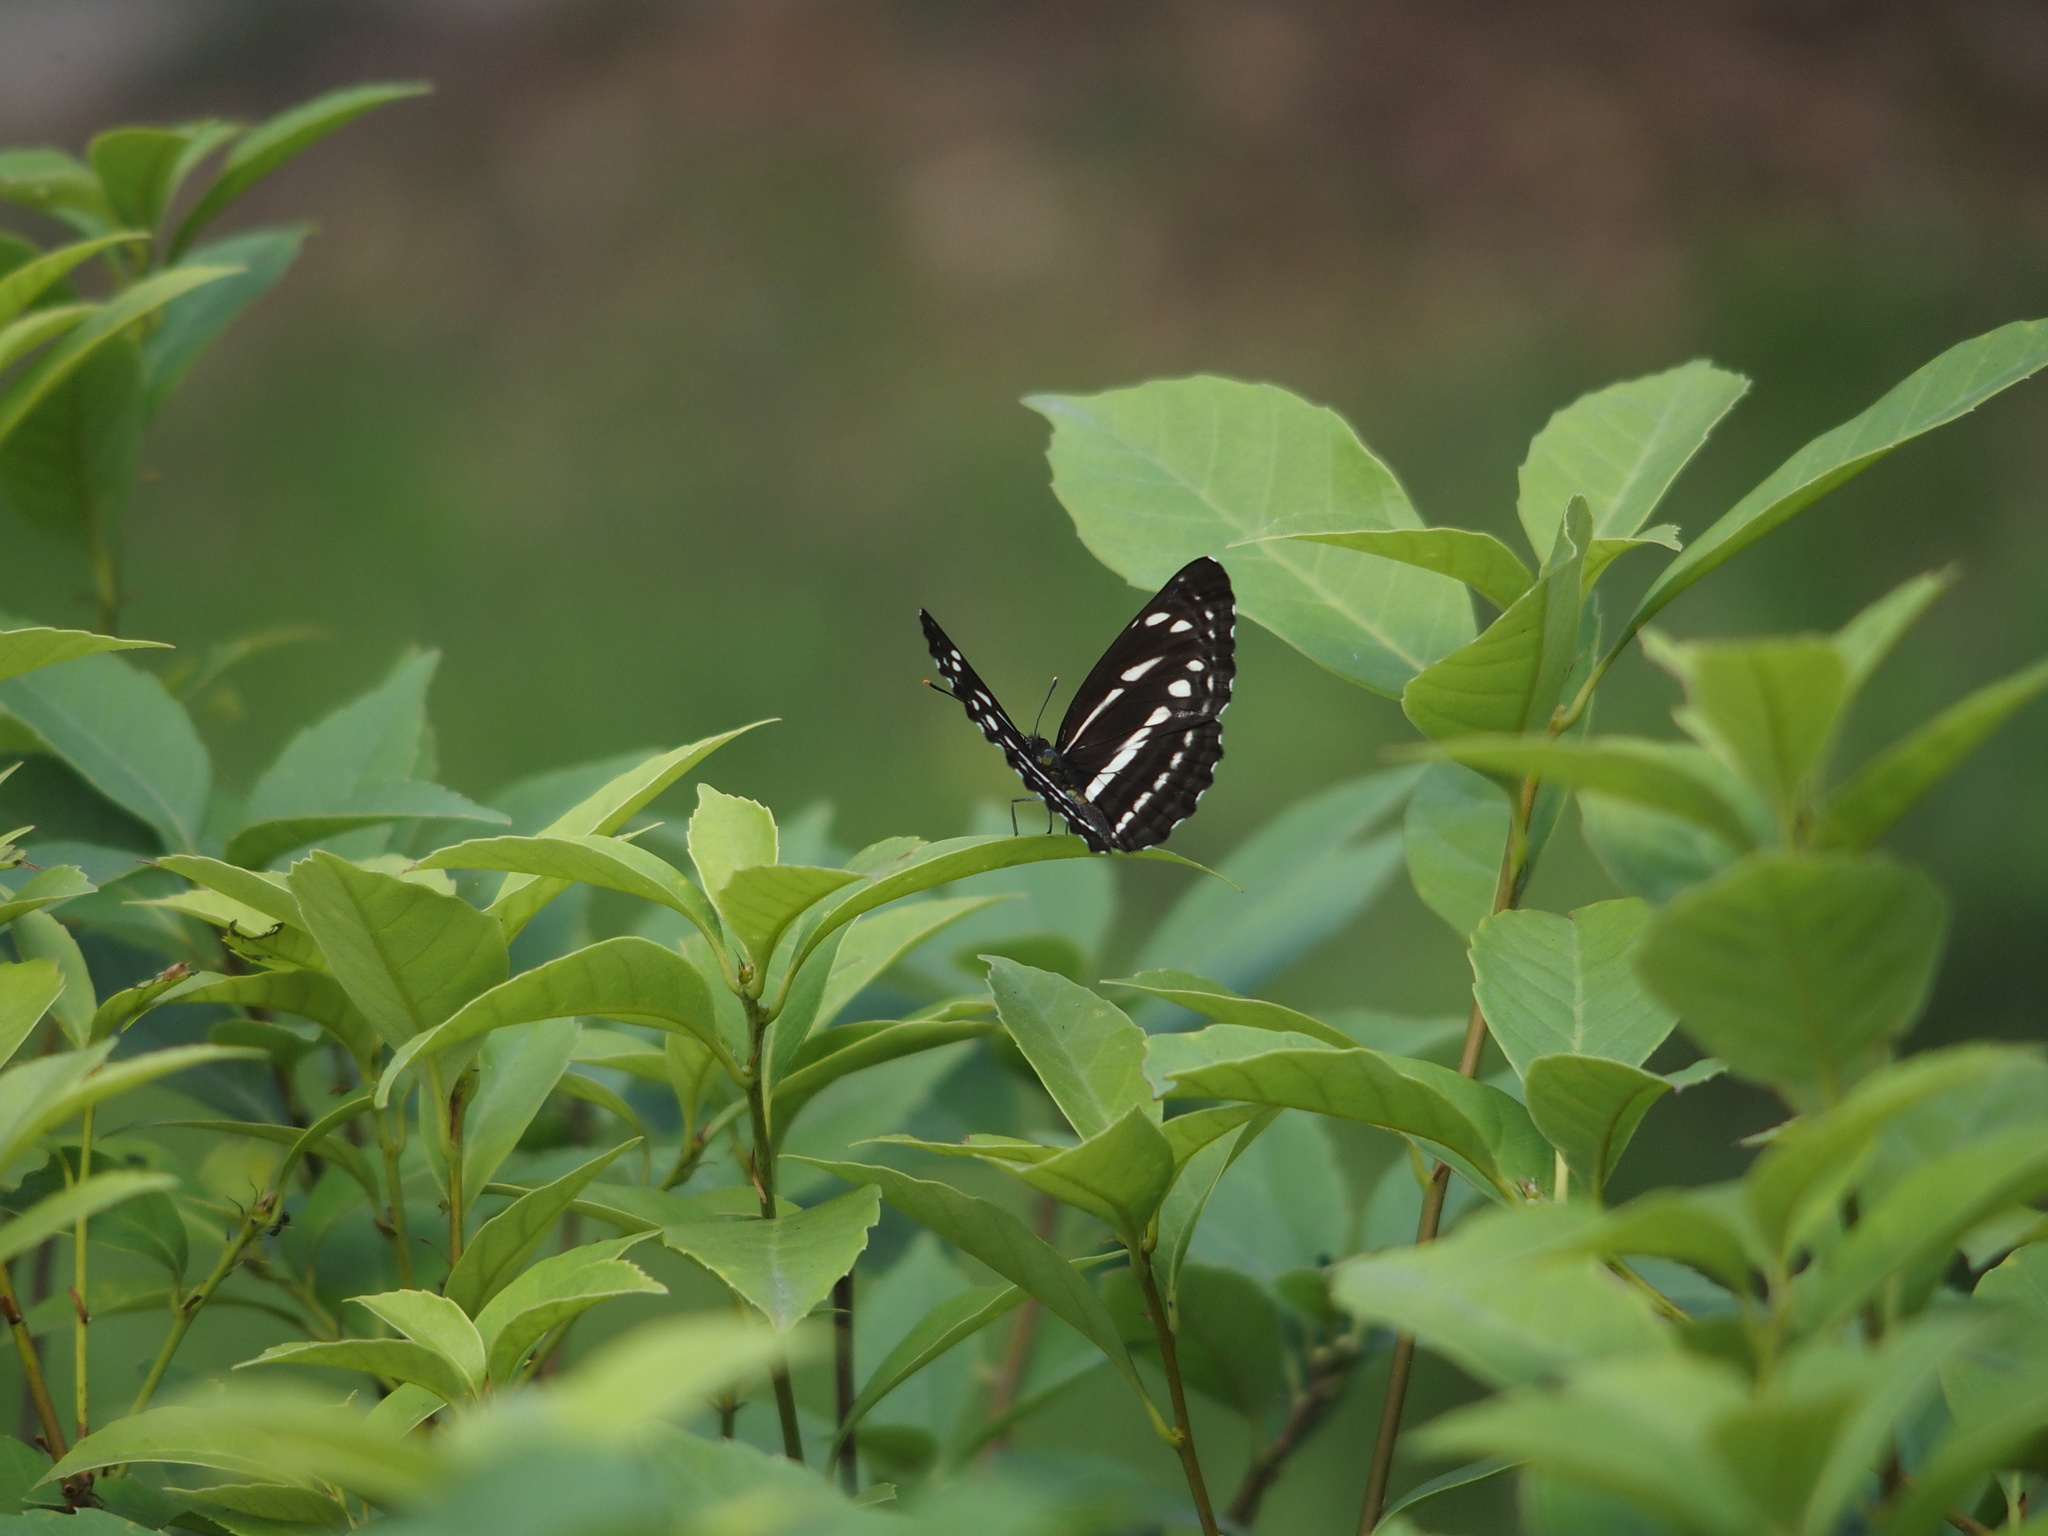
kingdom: Animalia
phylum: Arthropoda
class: Insecta
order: Lepidoptera
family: Nymphalidae
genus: Neptis
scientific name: Neptis nata
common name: Sullied brown sailer
